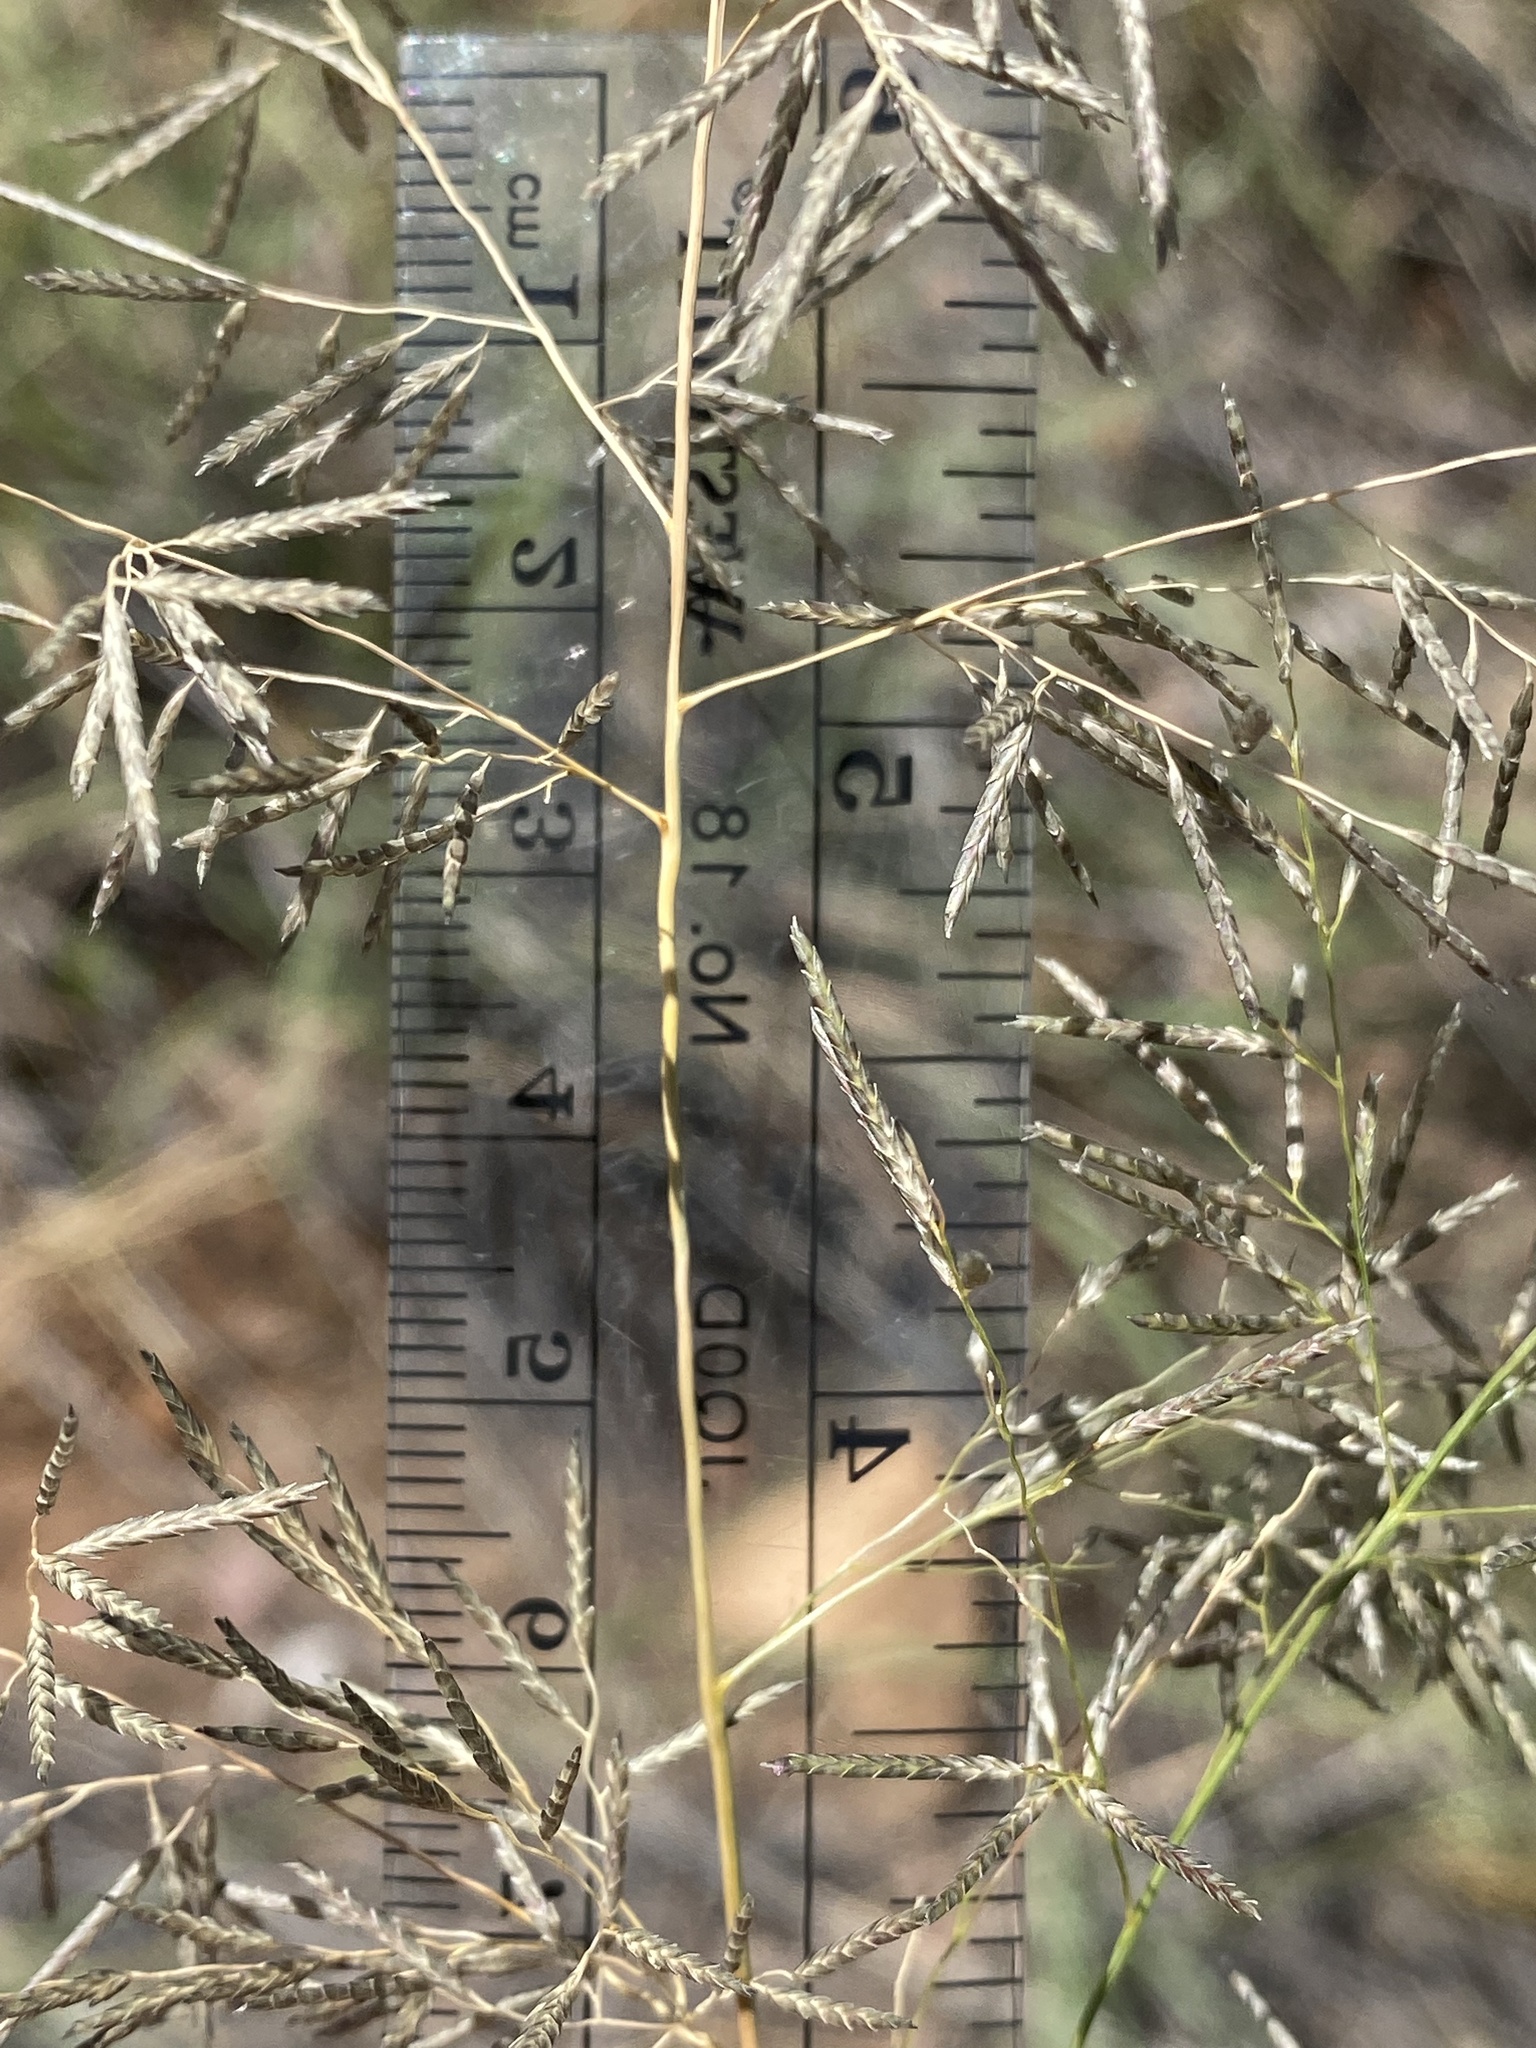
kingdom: Plantae
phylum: Tracheophyta
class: Liliopsida
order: Poales
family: Poaceae
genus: Eragrostis
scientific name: Eragrostis lehmanniana
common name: Lehmann lovegrass
